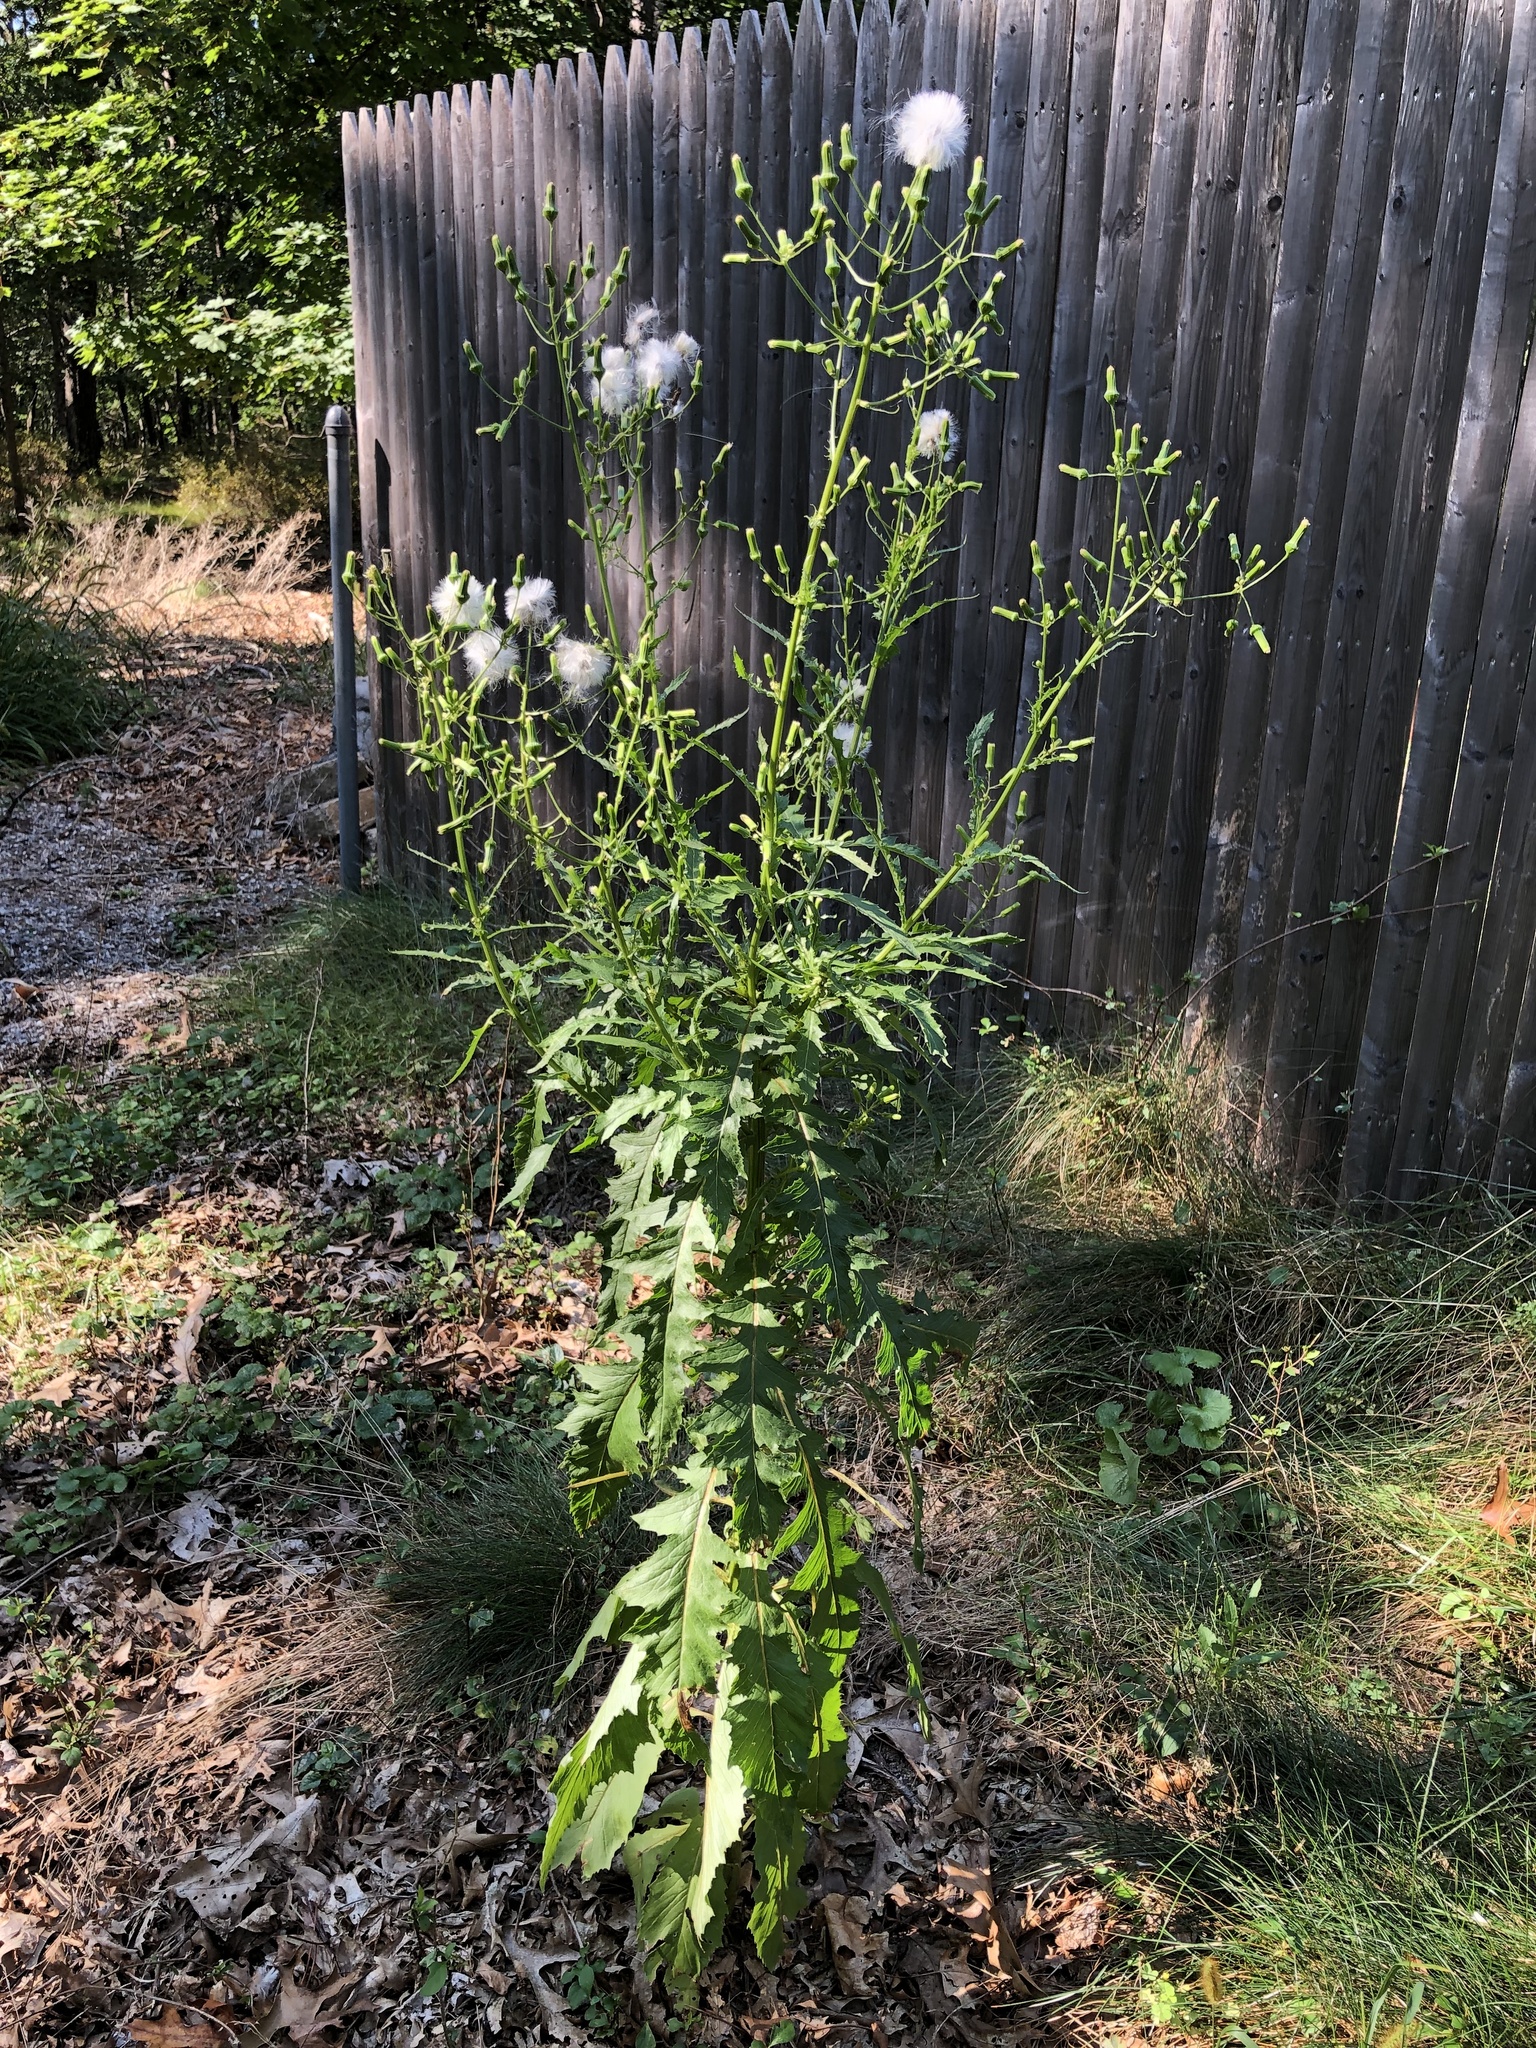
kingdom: Plantae
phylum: Tracheophyta
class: Magnoliopsida
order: Asterales
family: Asteraceae
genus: Erechtites
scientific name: Erechtites hieraciifolius
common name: American burnweed
